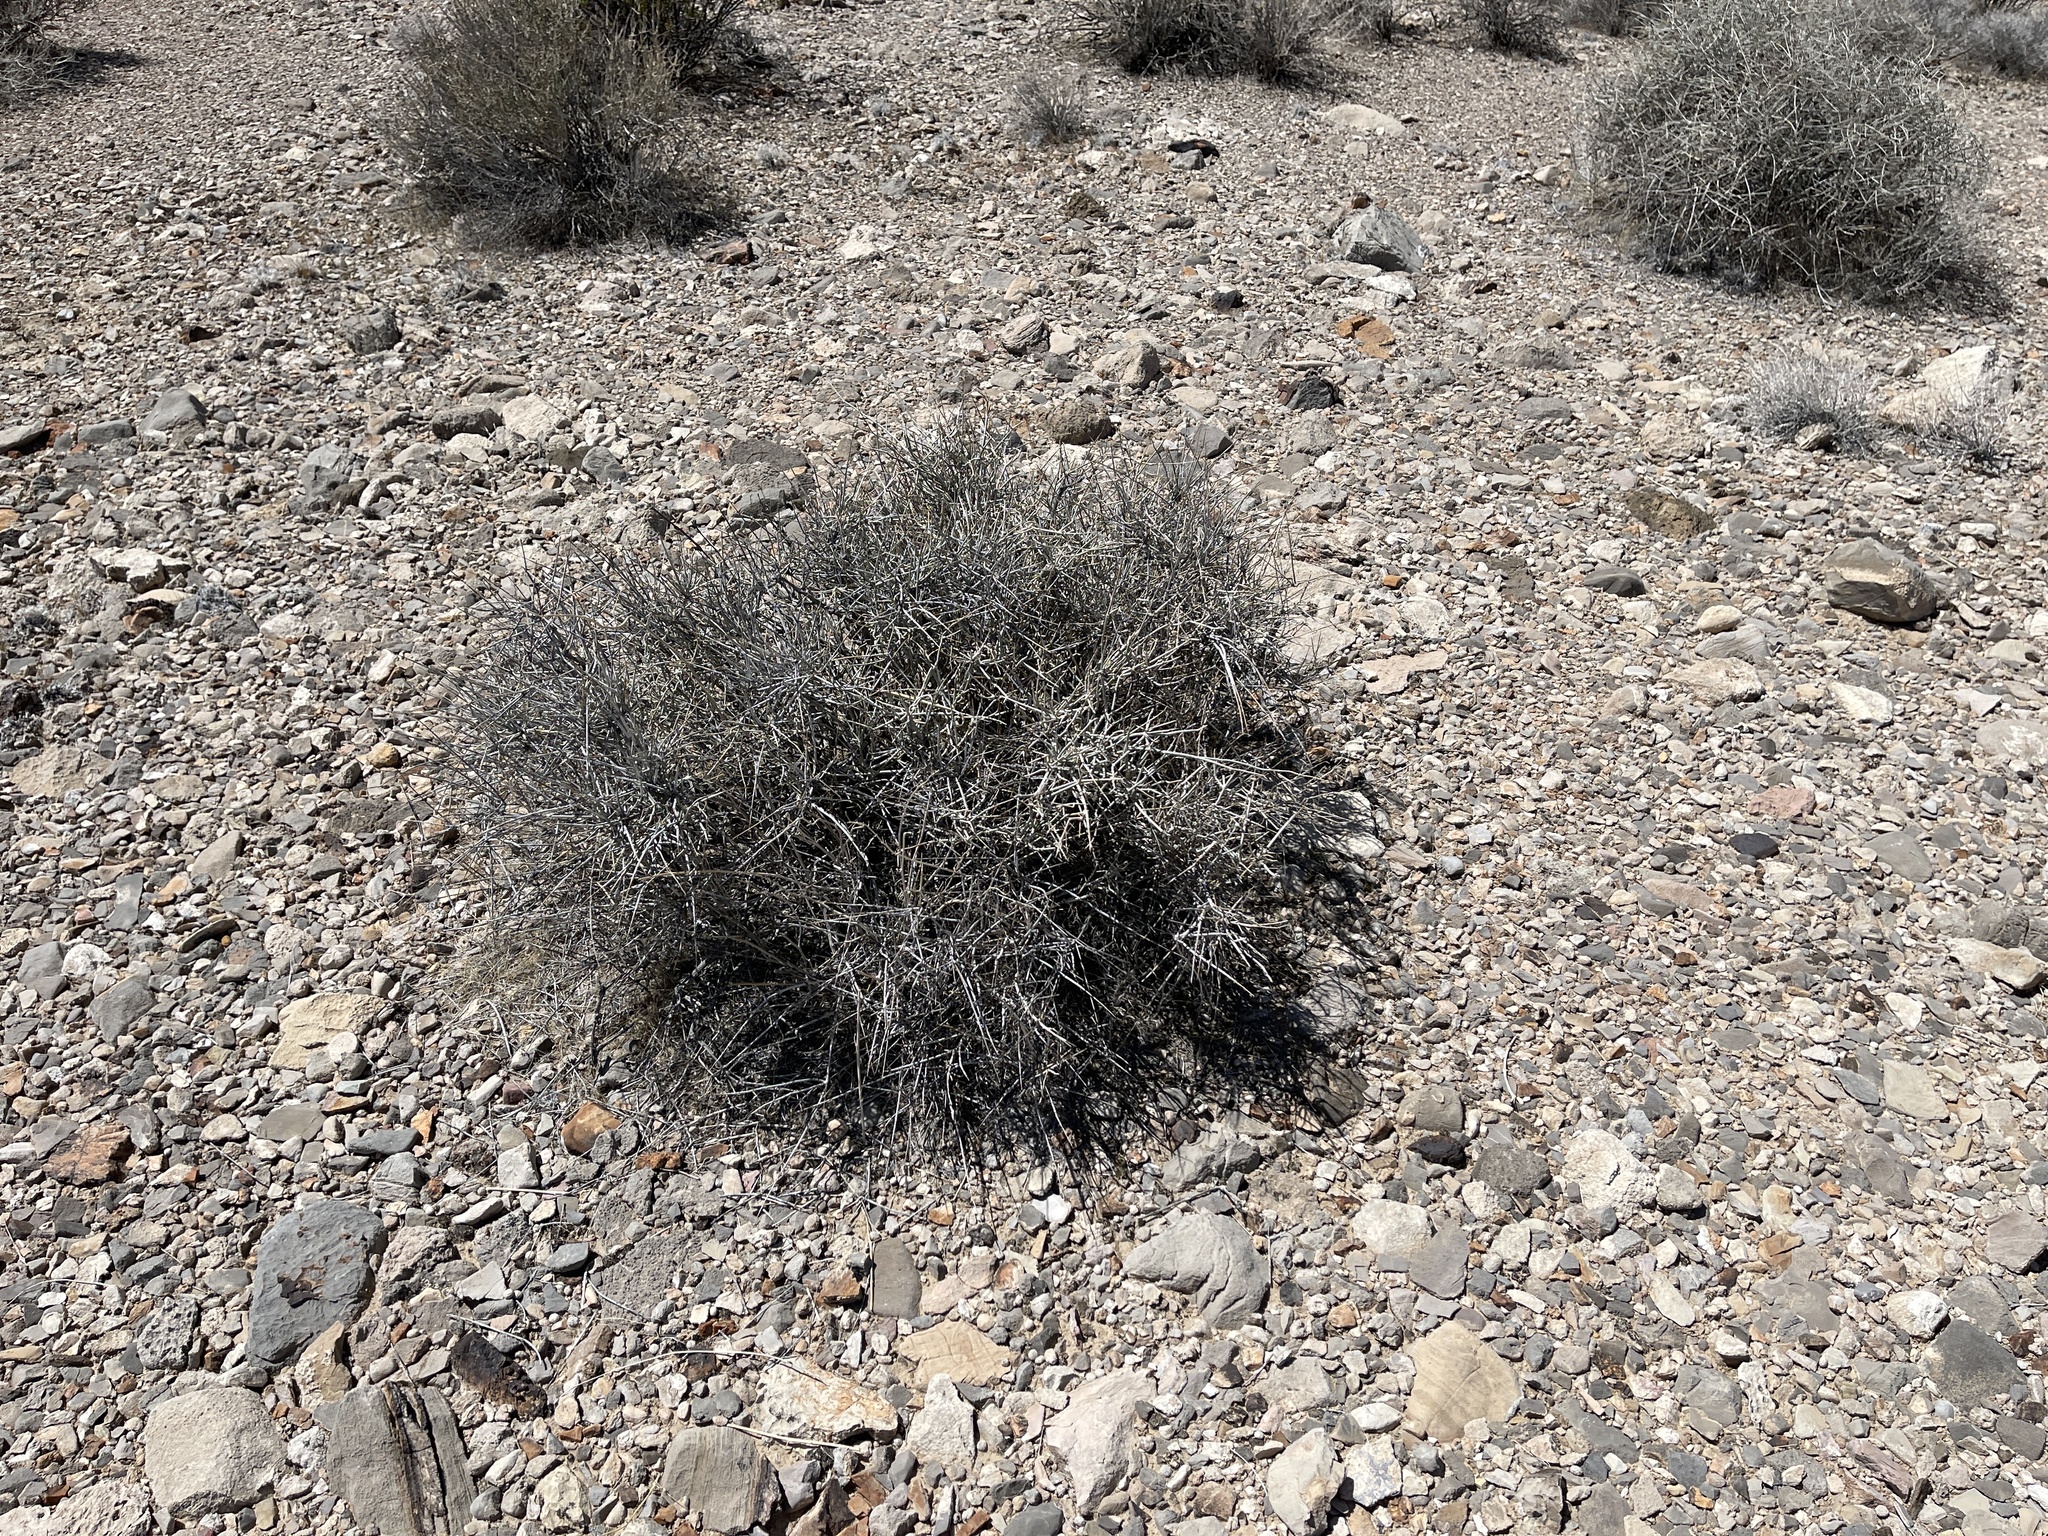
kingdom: Plantae
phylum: Tracheophyta
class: Gnetopsida
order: Ephedrales
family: Ephedraceae
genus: Ephedra
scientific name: Ephedra nevadensis
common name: Gray ephedra
